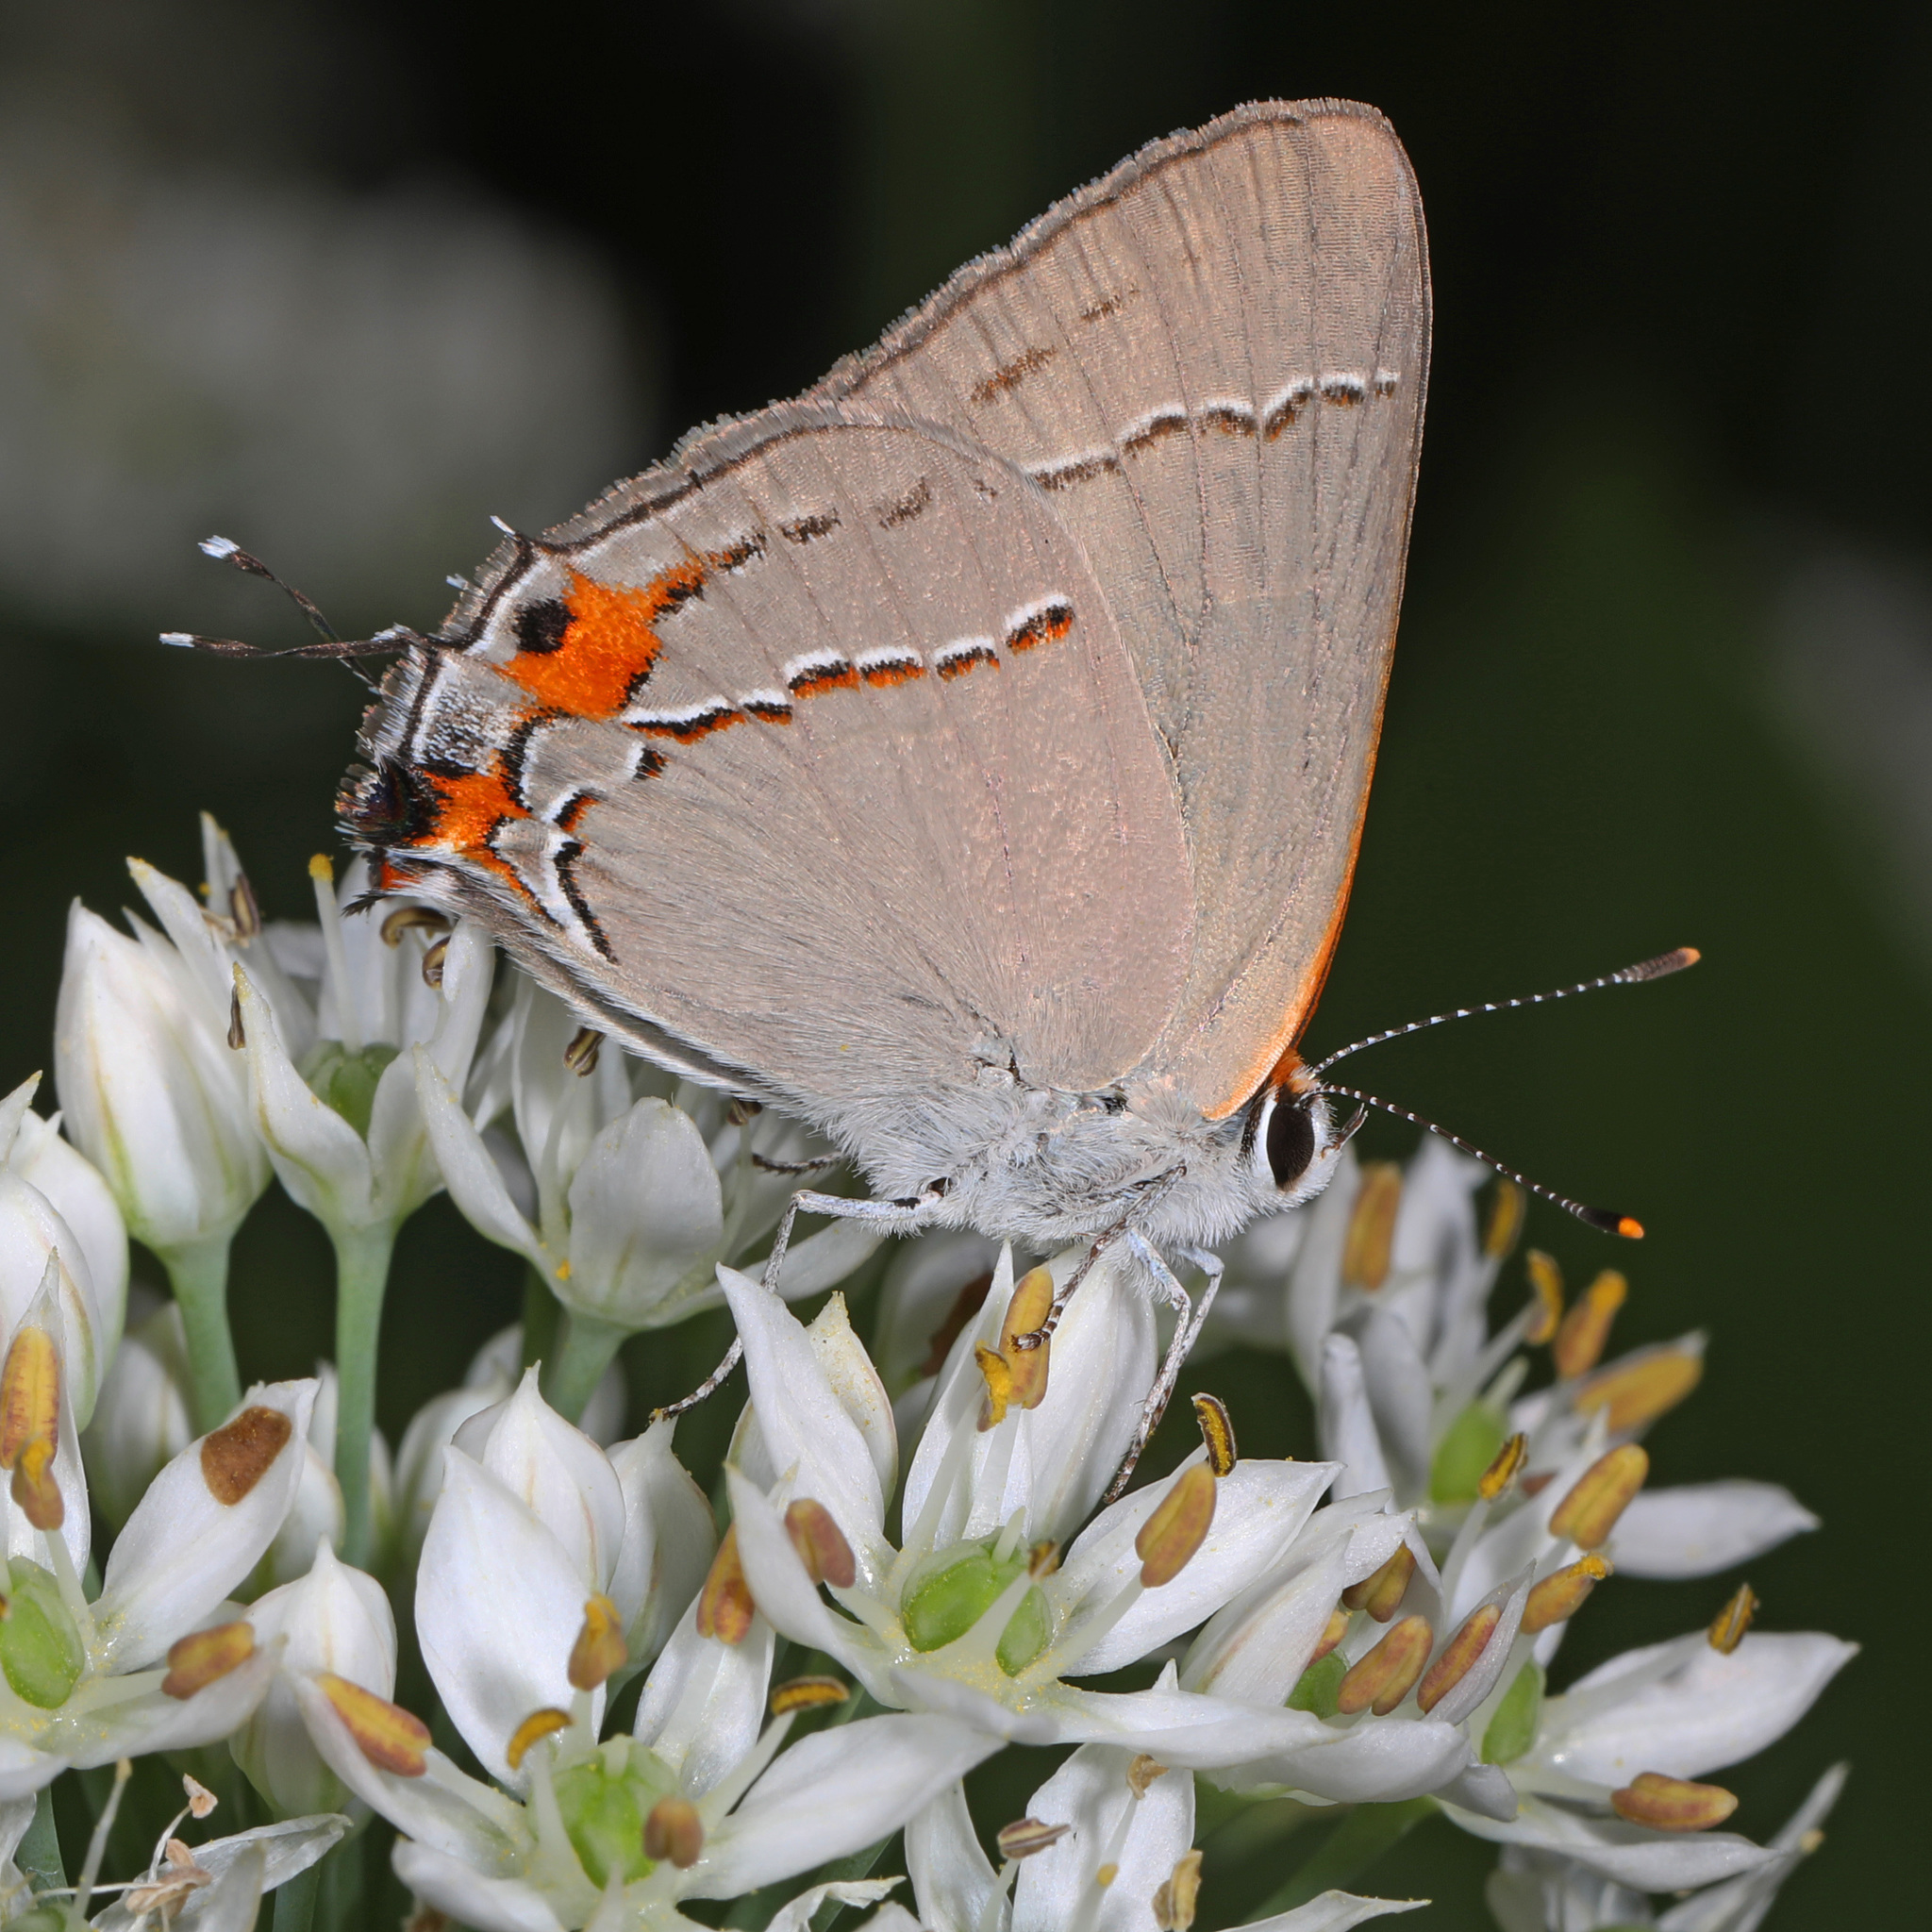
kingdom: Animalia
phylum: Arthropoda
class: Insecta
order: Lepidoptera
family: Lycaenidae
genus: Strymon
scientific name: Strymon melinus
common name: Gray hairstreak
